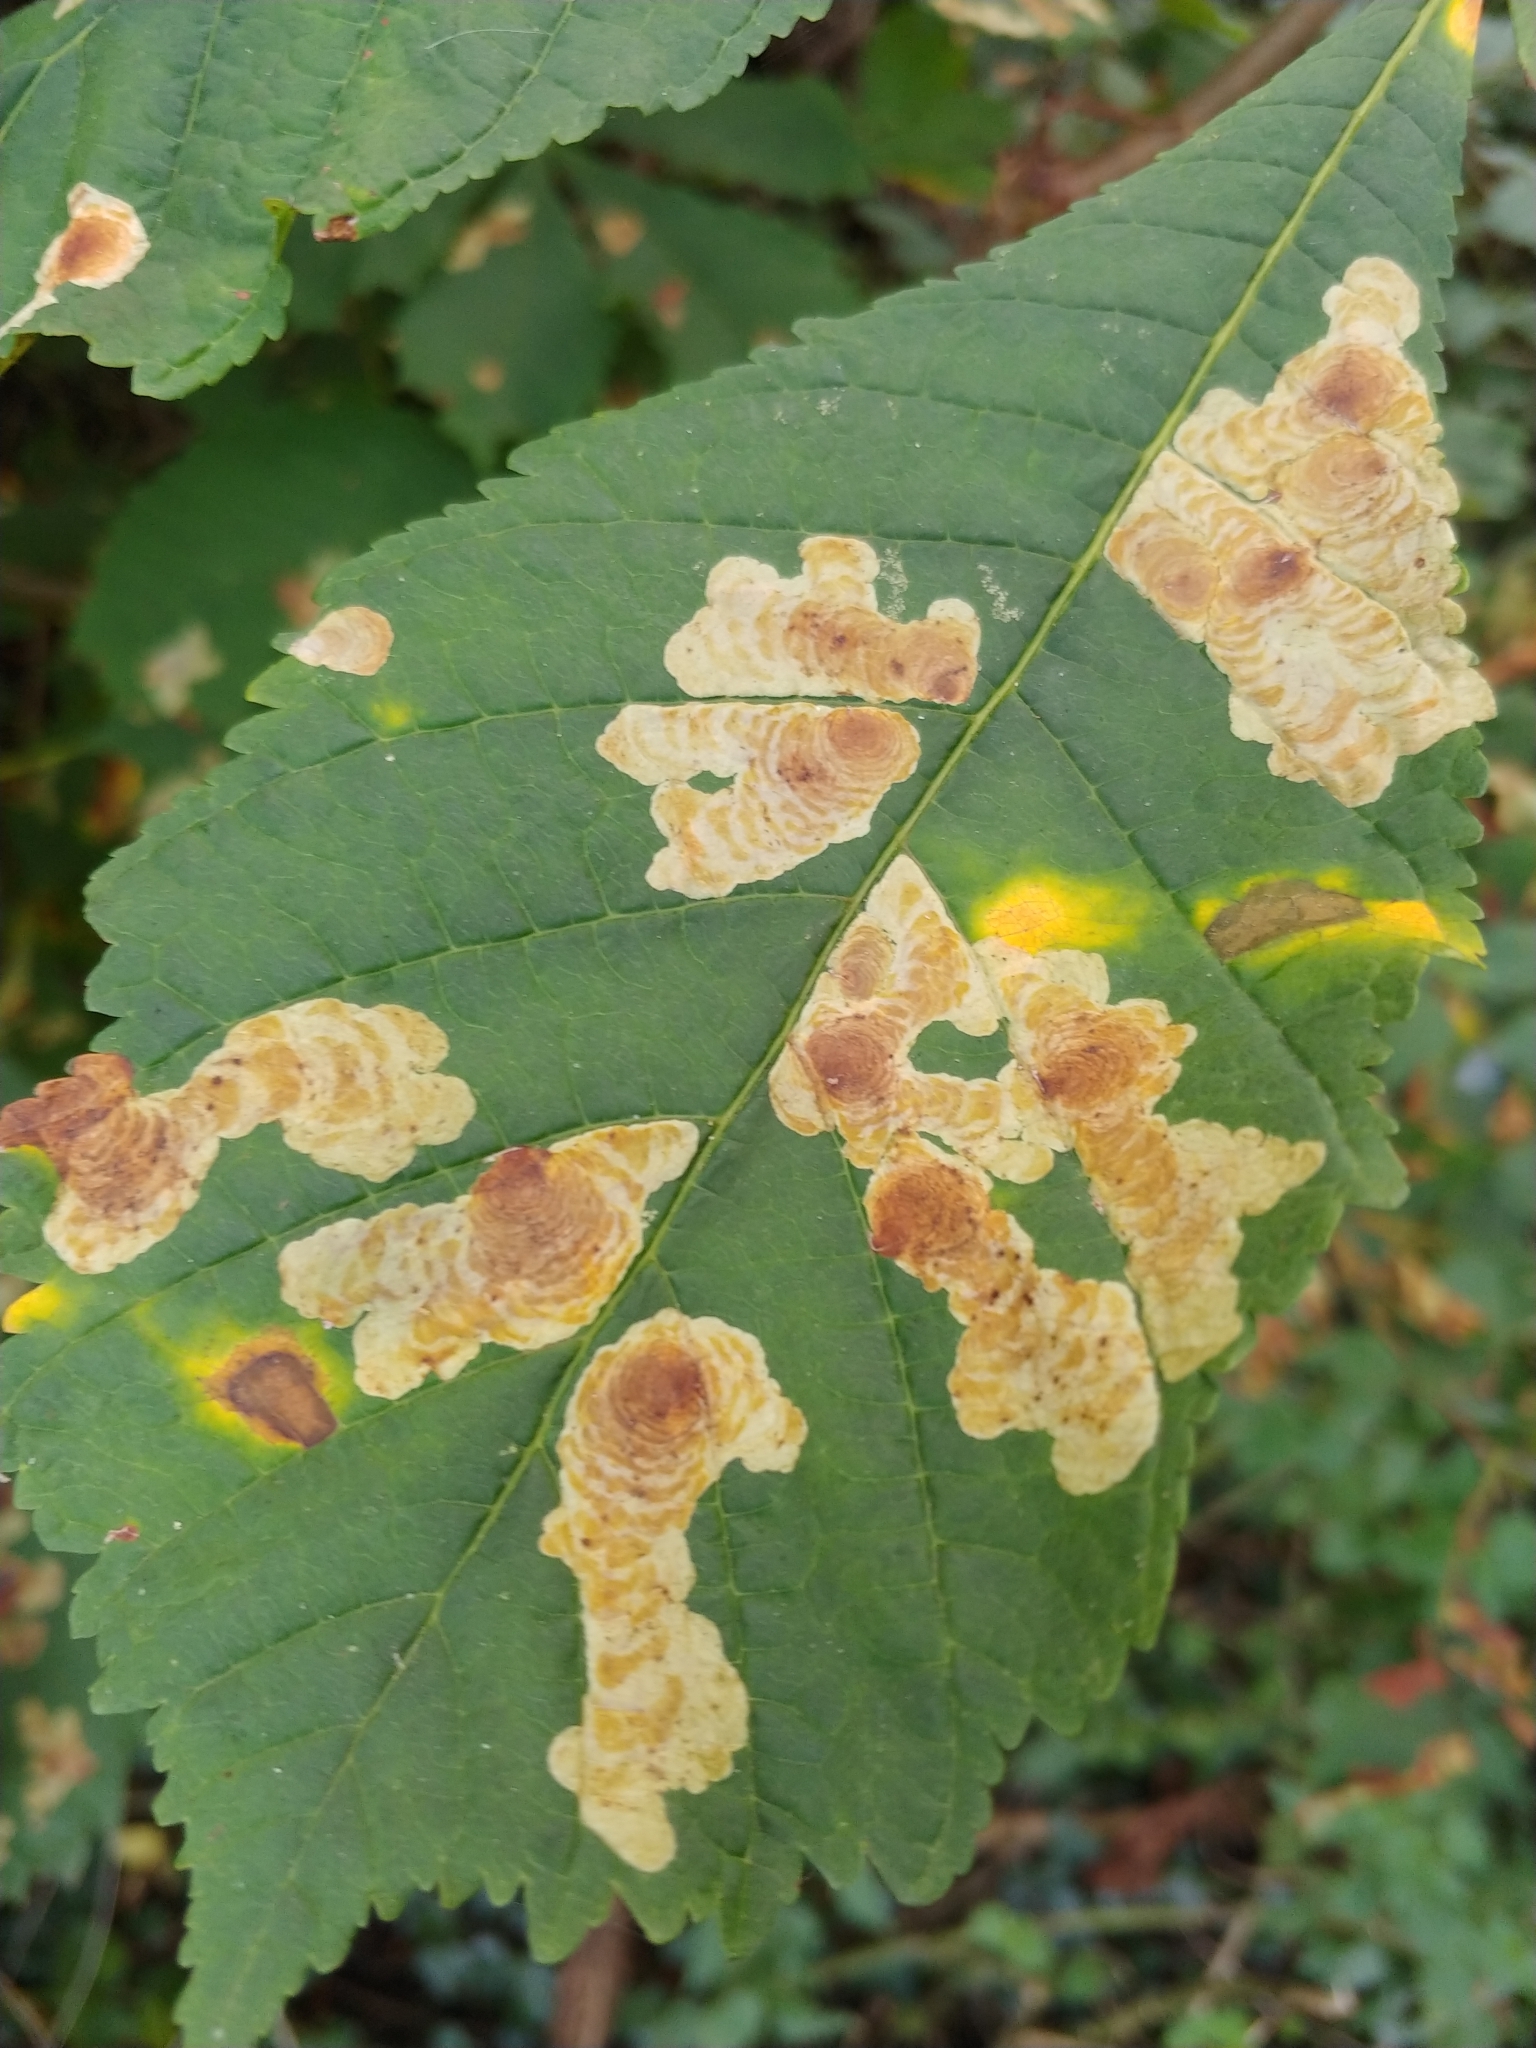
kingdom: Animalia
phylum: Arthropoda
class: Insecta
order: Lepidoptera
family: Gracillariidae
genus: Cameraria
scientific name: Cameraria ohridella
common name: Horse-chestnut leaf-miner
